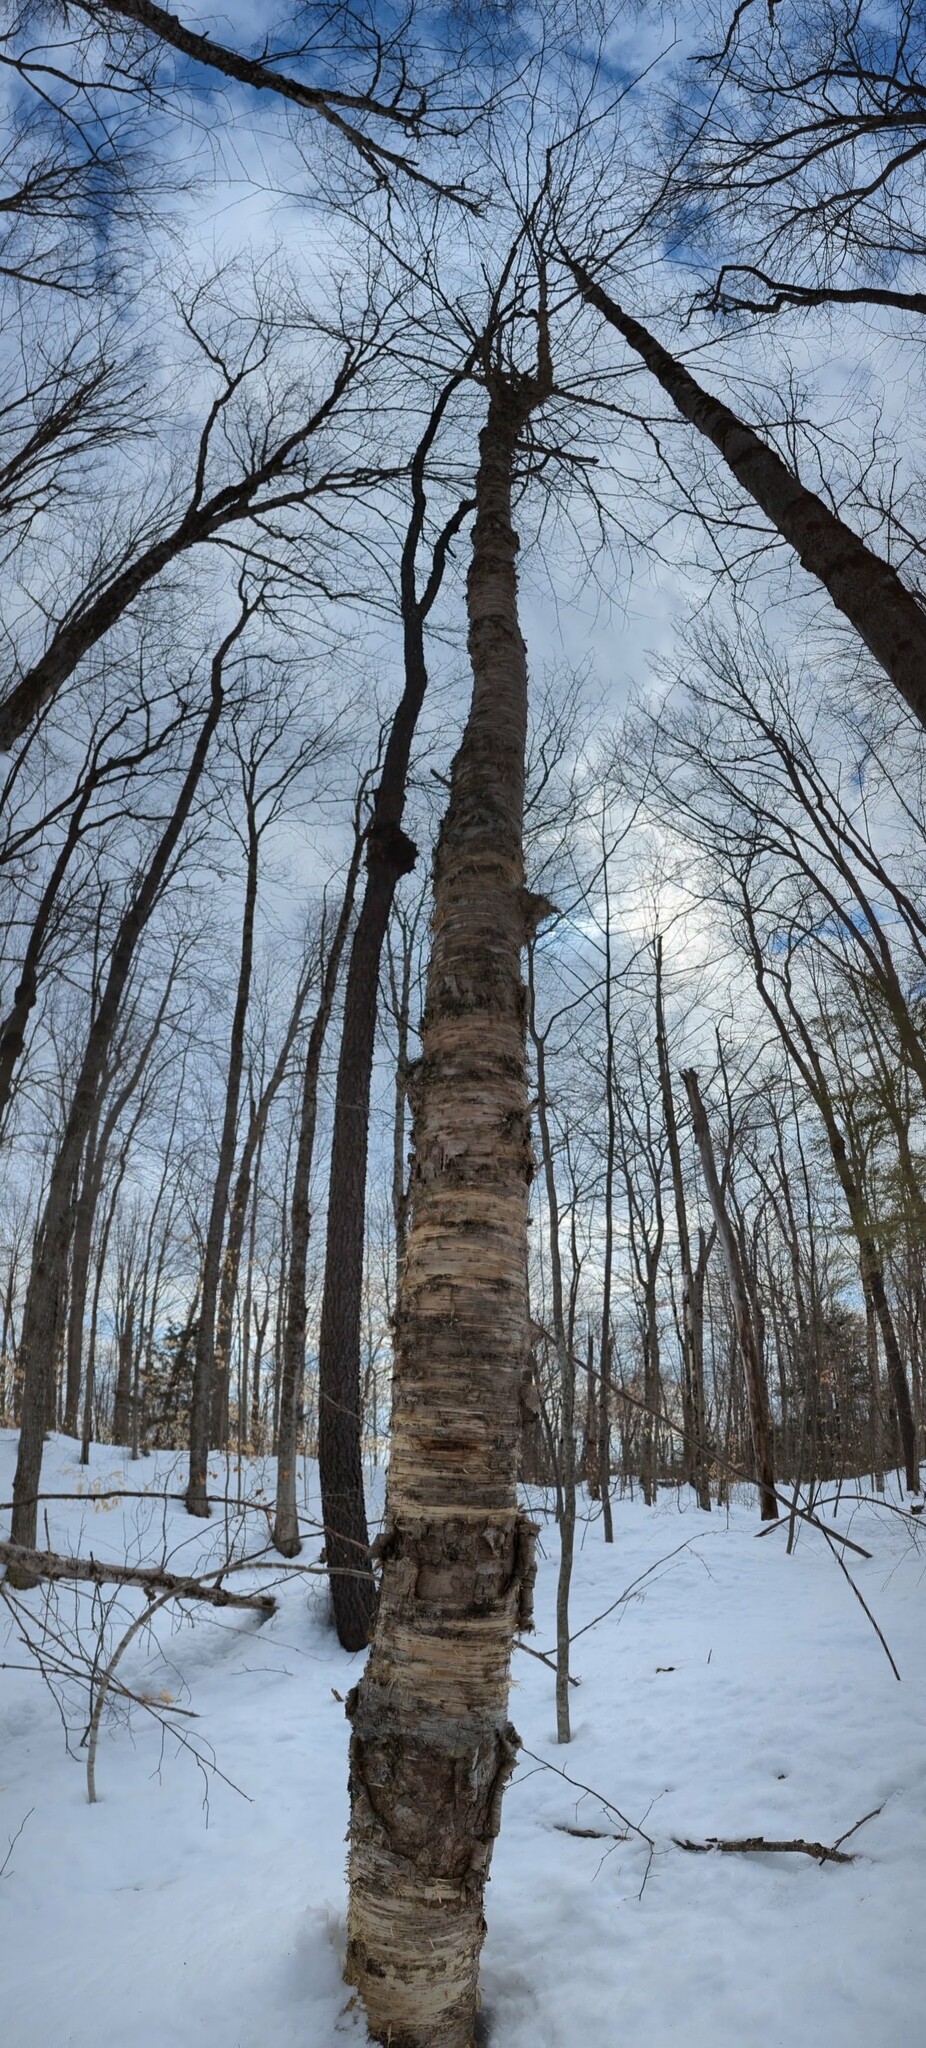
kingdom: Plantae
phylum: Tracheophyta
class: Magnoliopsida
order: Fagales
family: Betulaceae
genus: Betula
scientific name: Betula alleghaniensis
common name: Yellow birch
